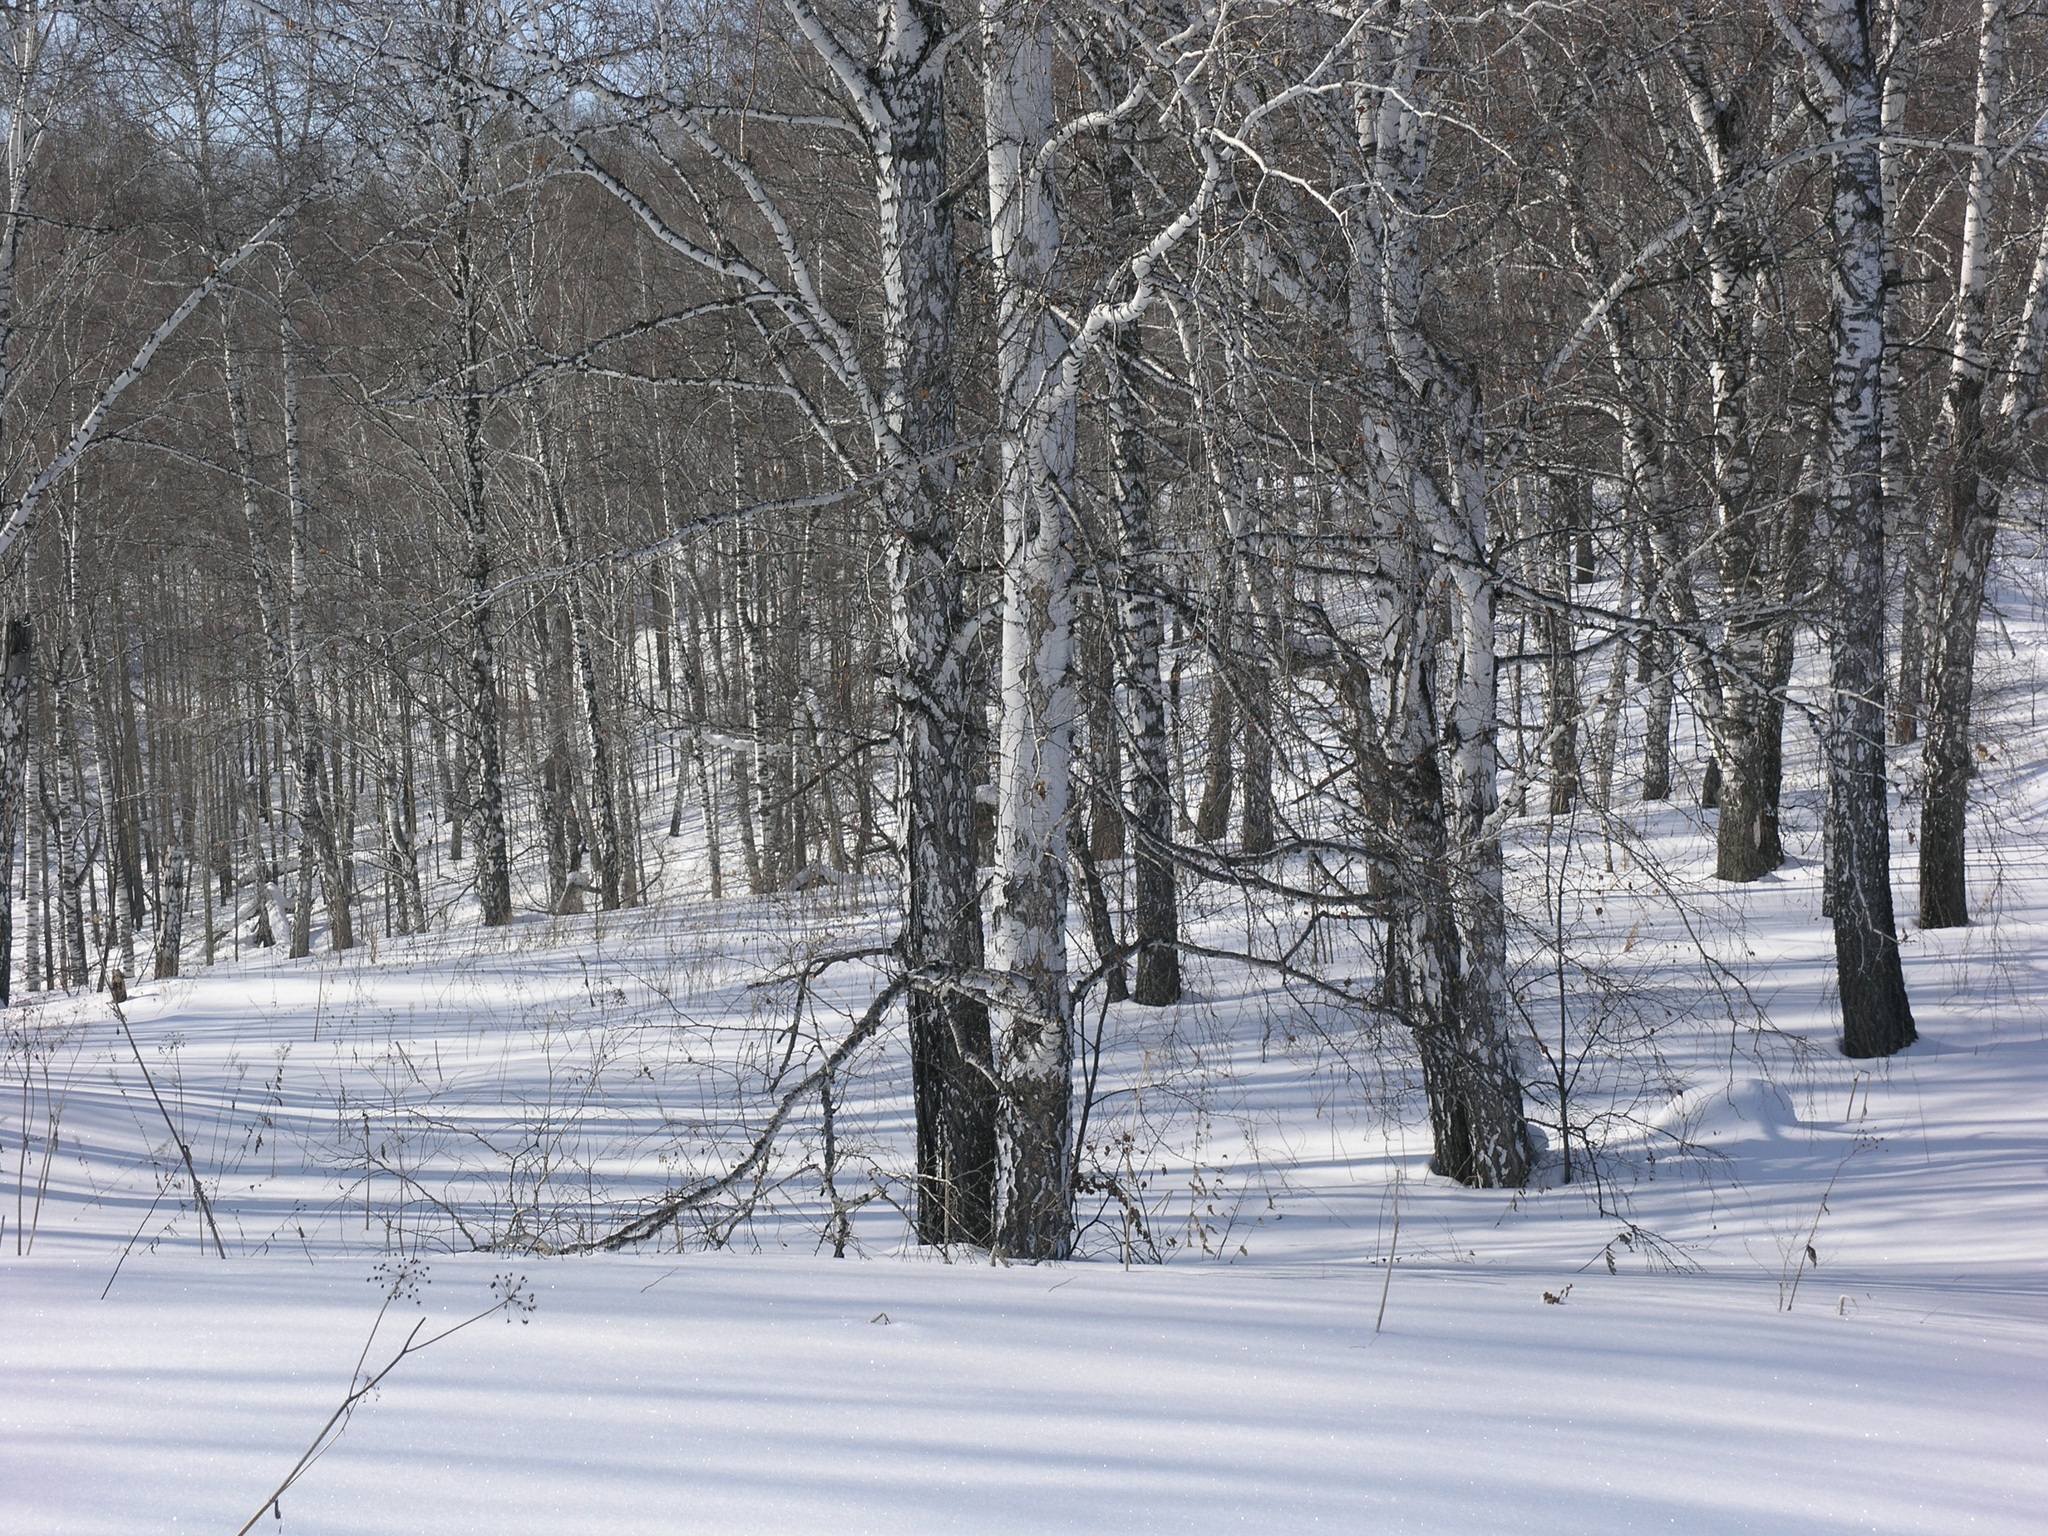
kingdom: Plantae
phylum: Tracheophyta
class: Magnoliopsida
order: Fagales
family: Betulaceae
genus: Betula
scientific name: Betula pendula
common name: Silver birch
